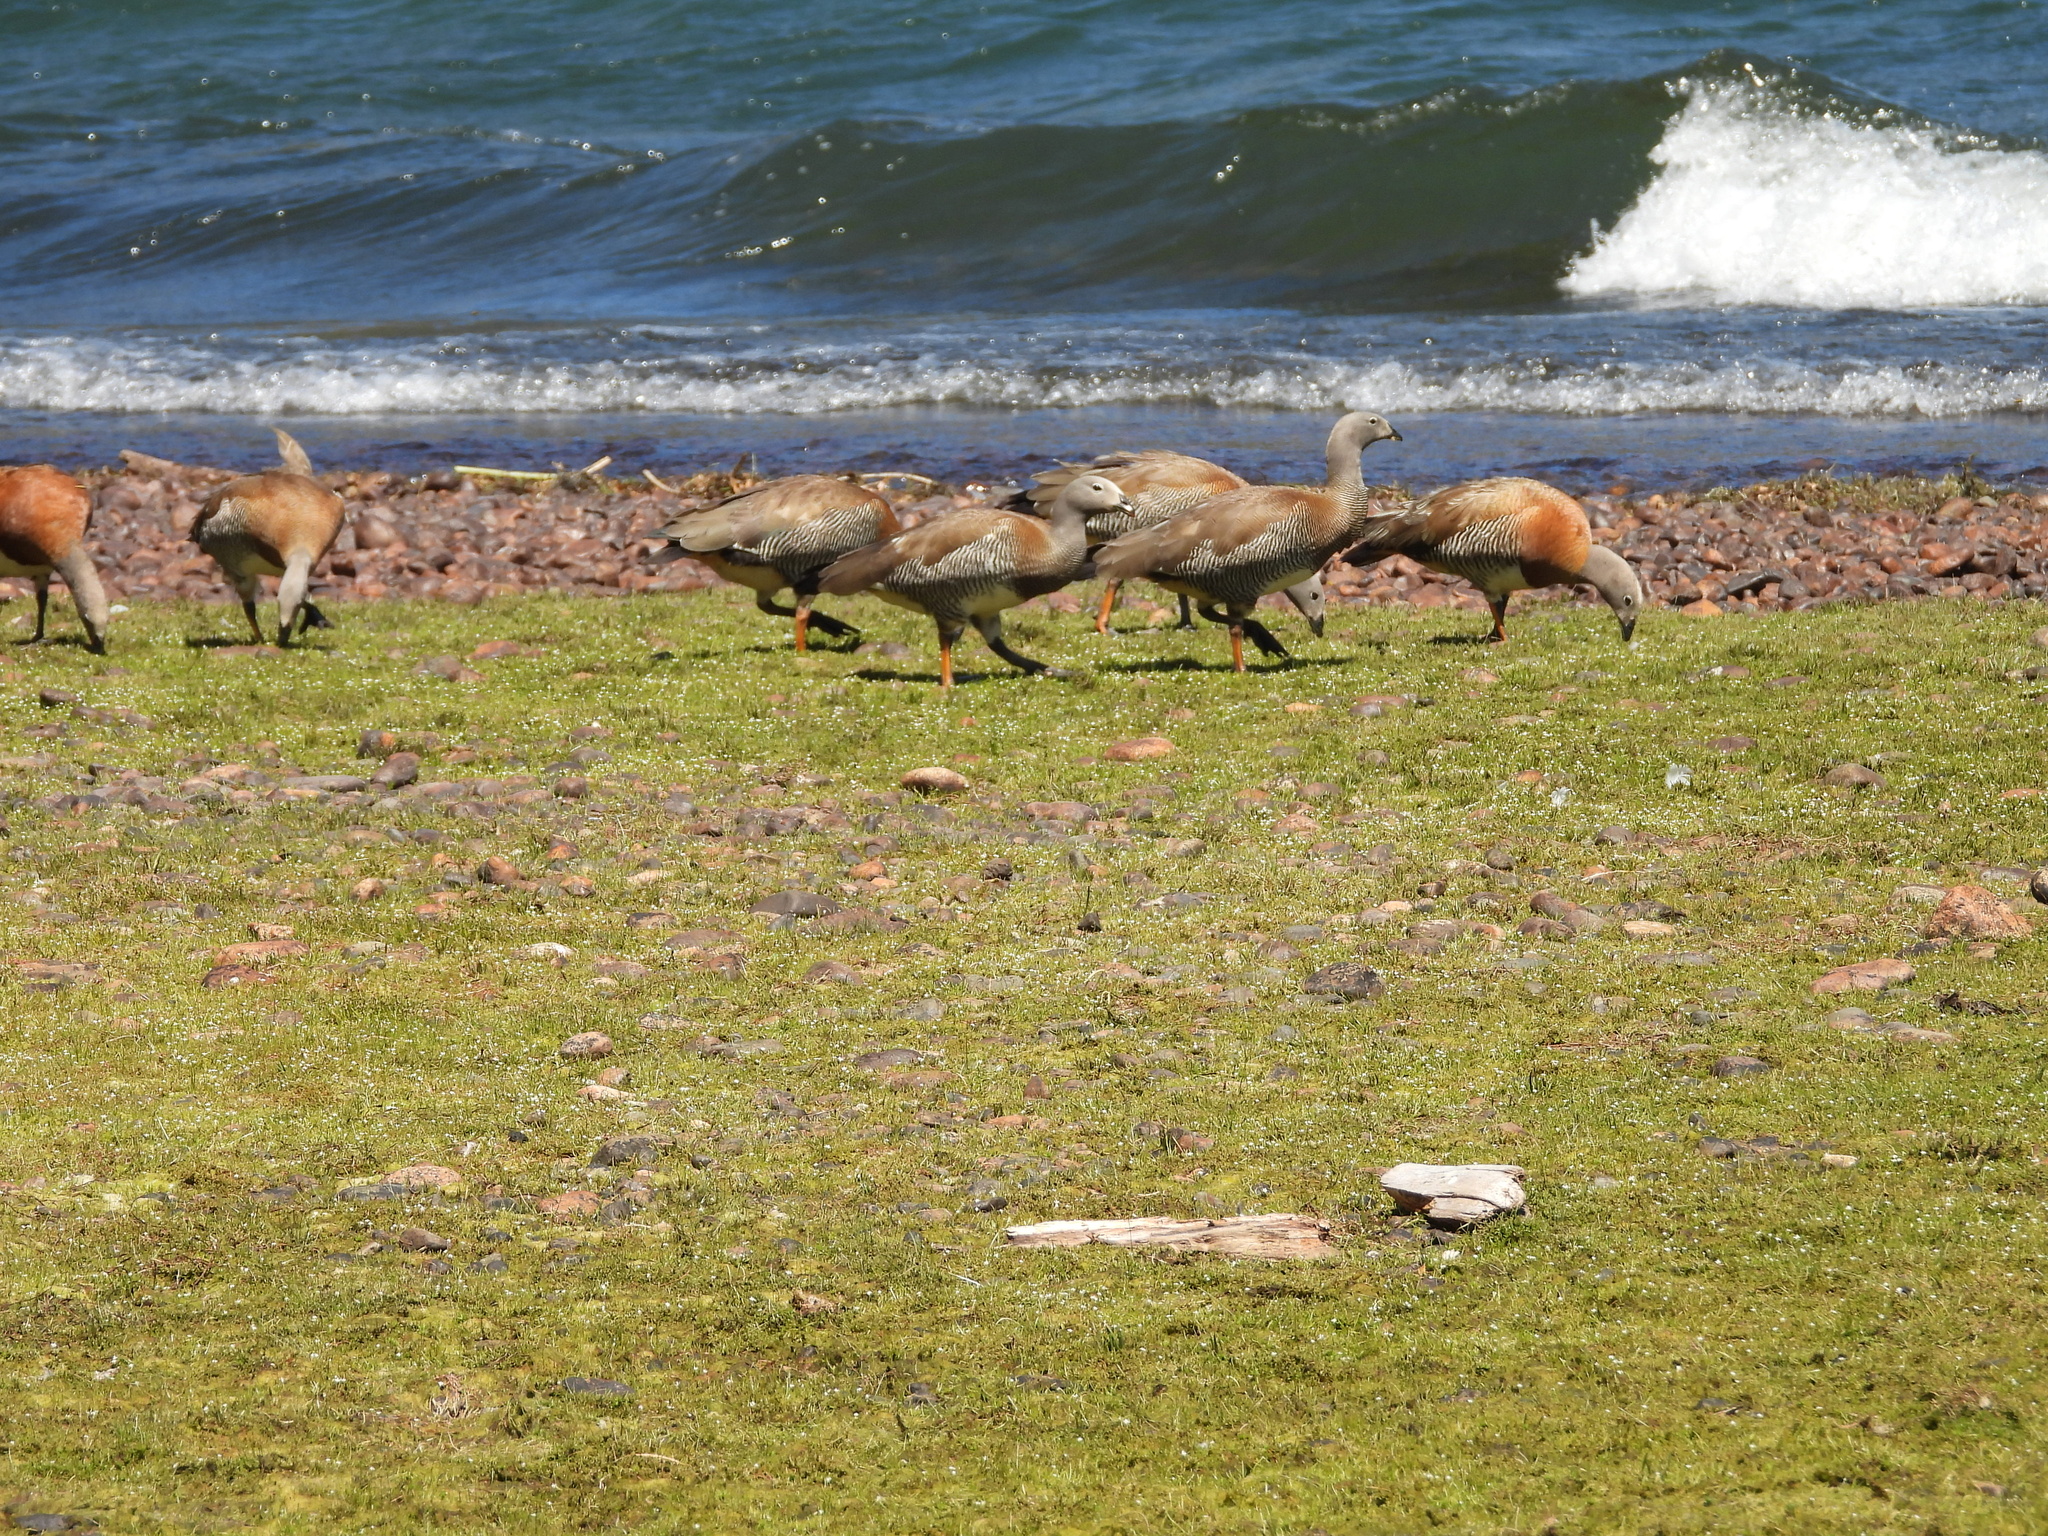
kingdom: Animalia
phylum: Chordata
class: Aves
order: Anseriformes
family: Anatidae
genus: Chloephaga
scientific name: Chloephaga poliocephala
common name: Ashy-headed goose
